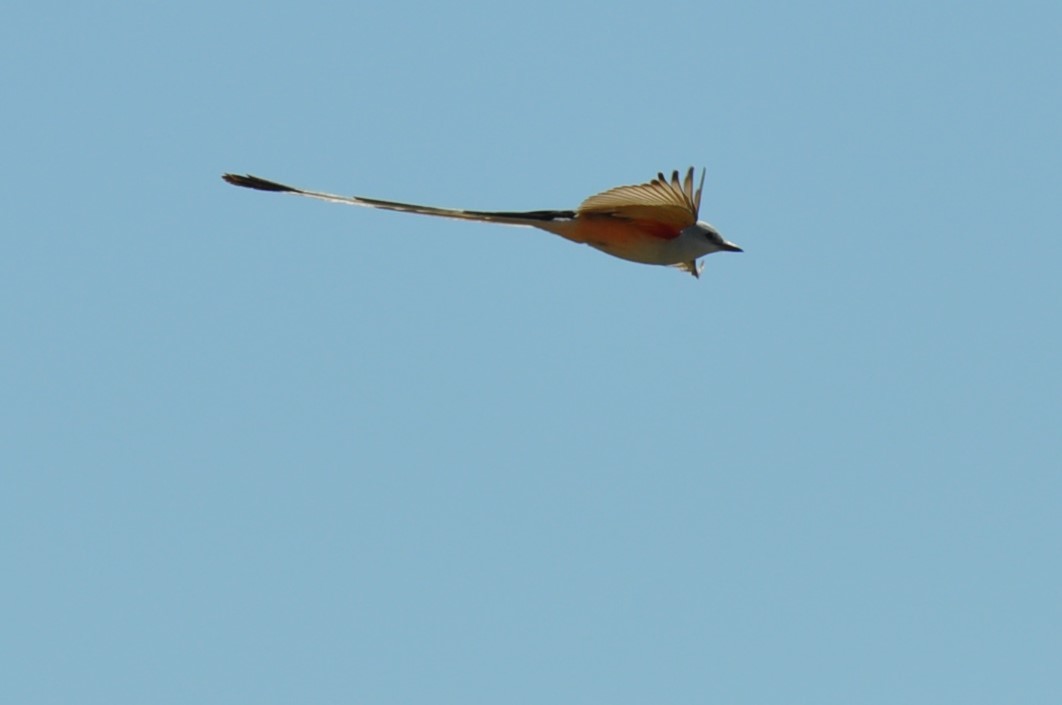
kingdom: Animalia
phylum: Chordata
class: Aves
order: Passeriformes
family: Tyrannidae
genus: Tyrannus
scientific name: Tyrannus forficatus
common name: Scissor-tailed flycatcher
